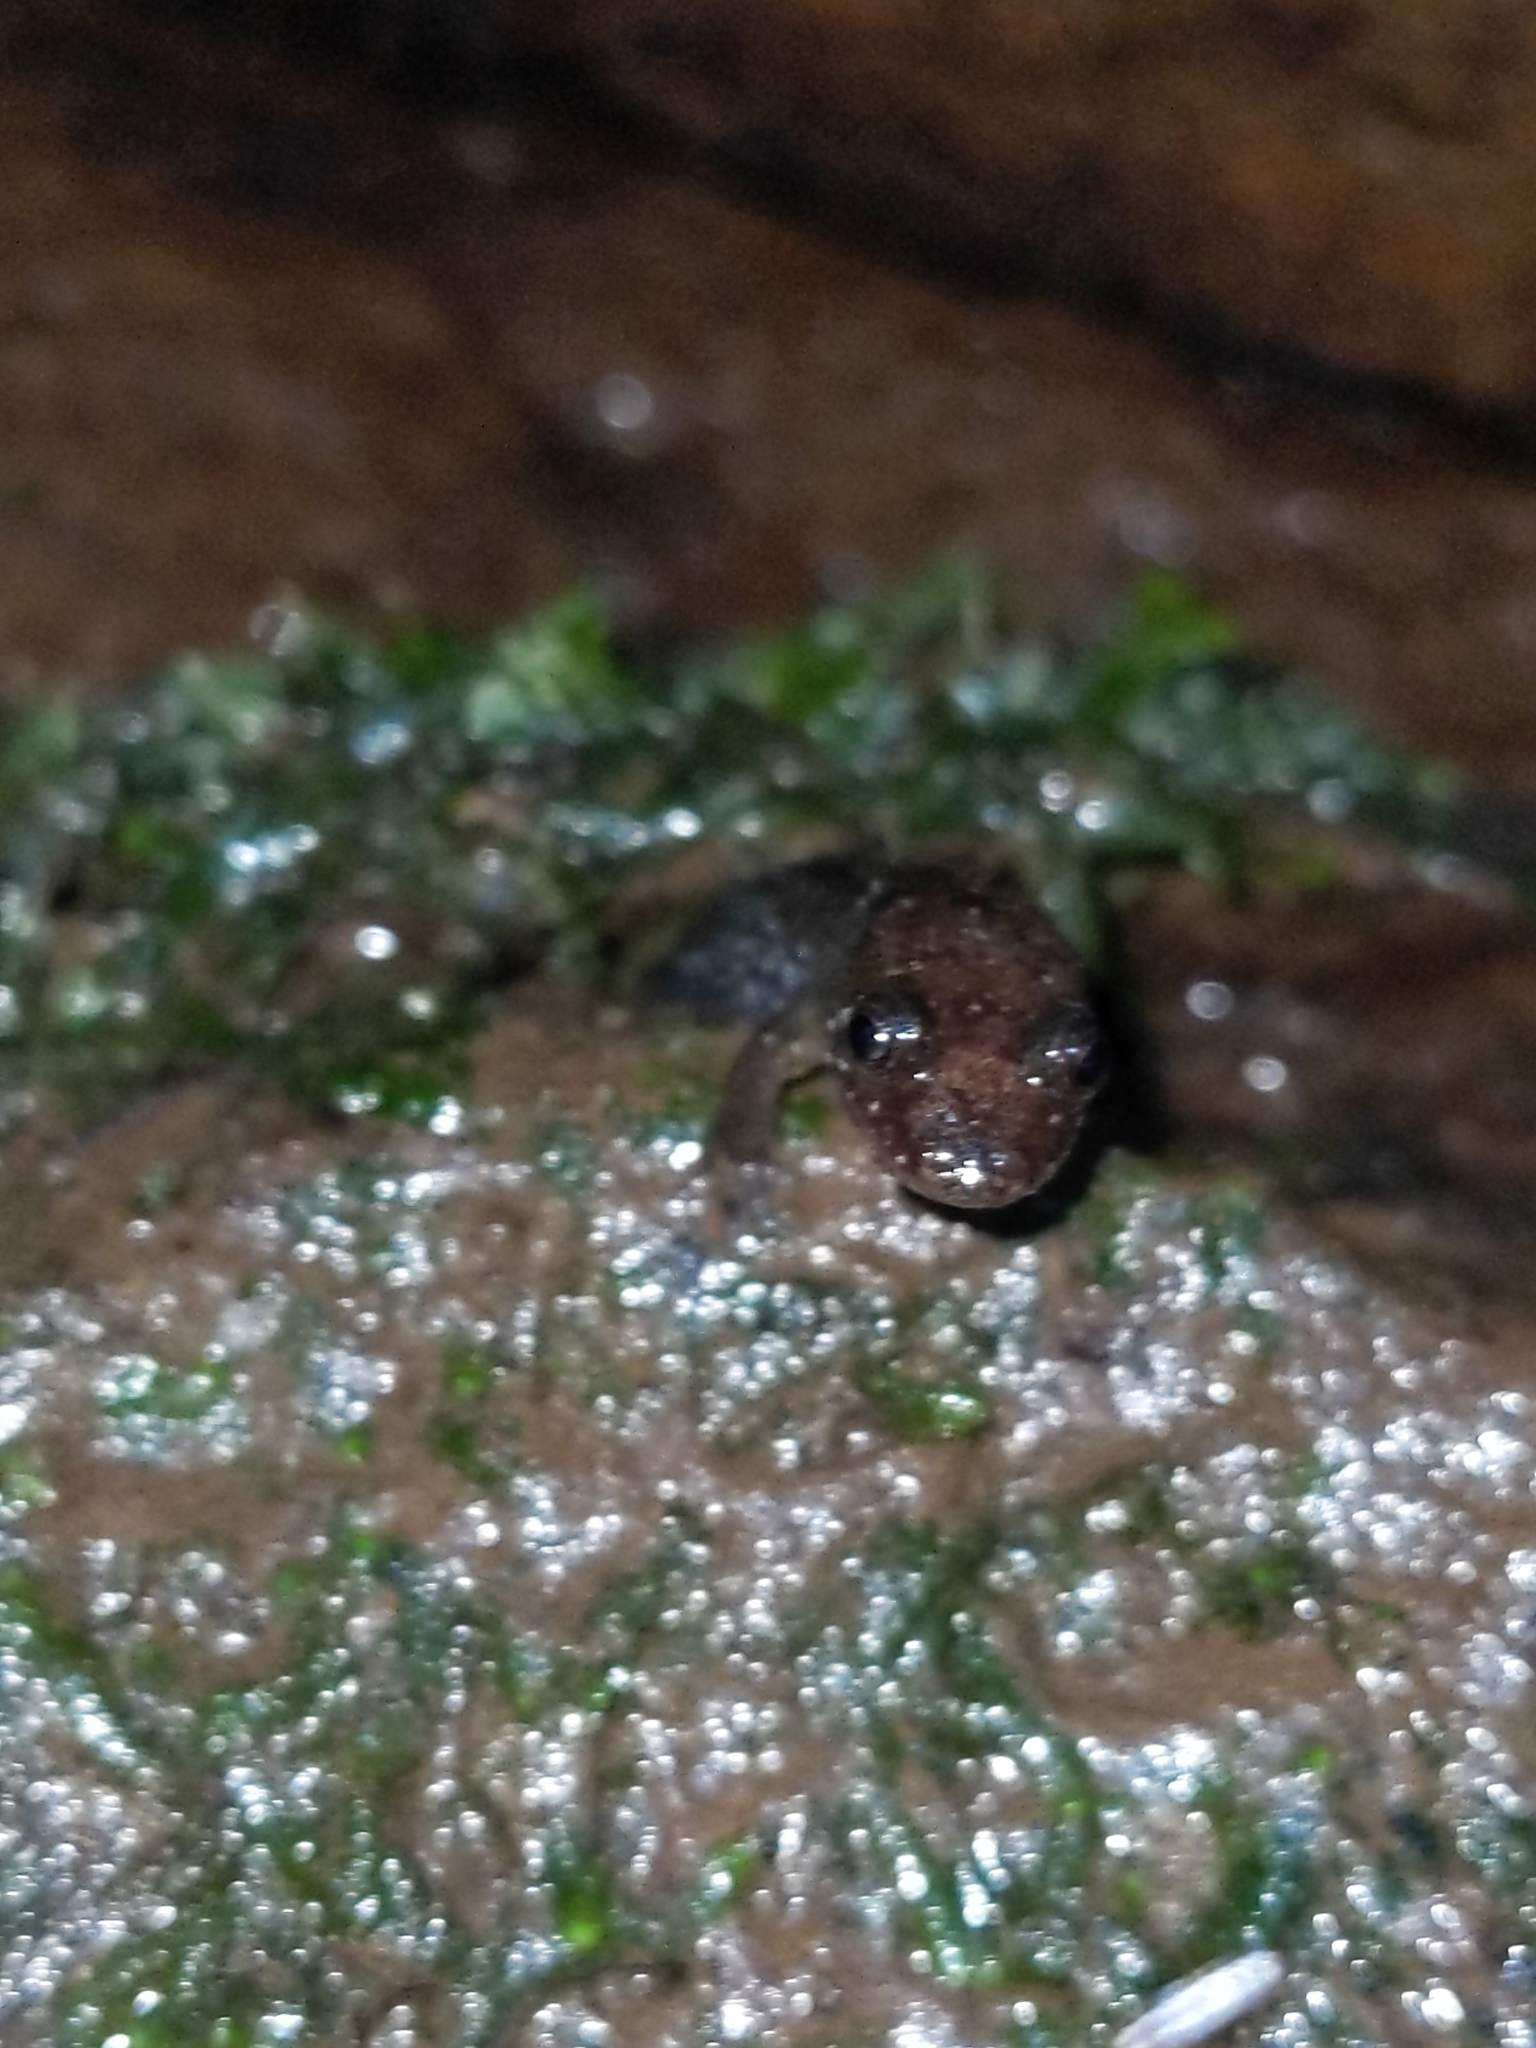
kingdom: Animalia
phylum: Chordata
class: Amphibia
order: Caudata
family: Plethodontidae
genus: Desmognathus
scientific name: Desmognathus ochrophaeus
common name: Allegheny mountain dusky salamander
